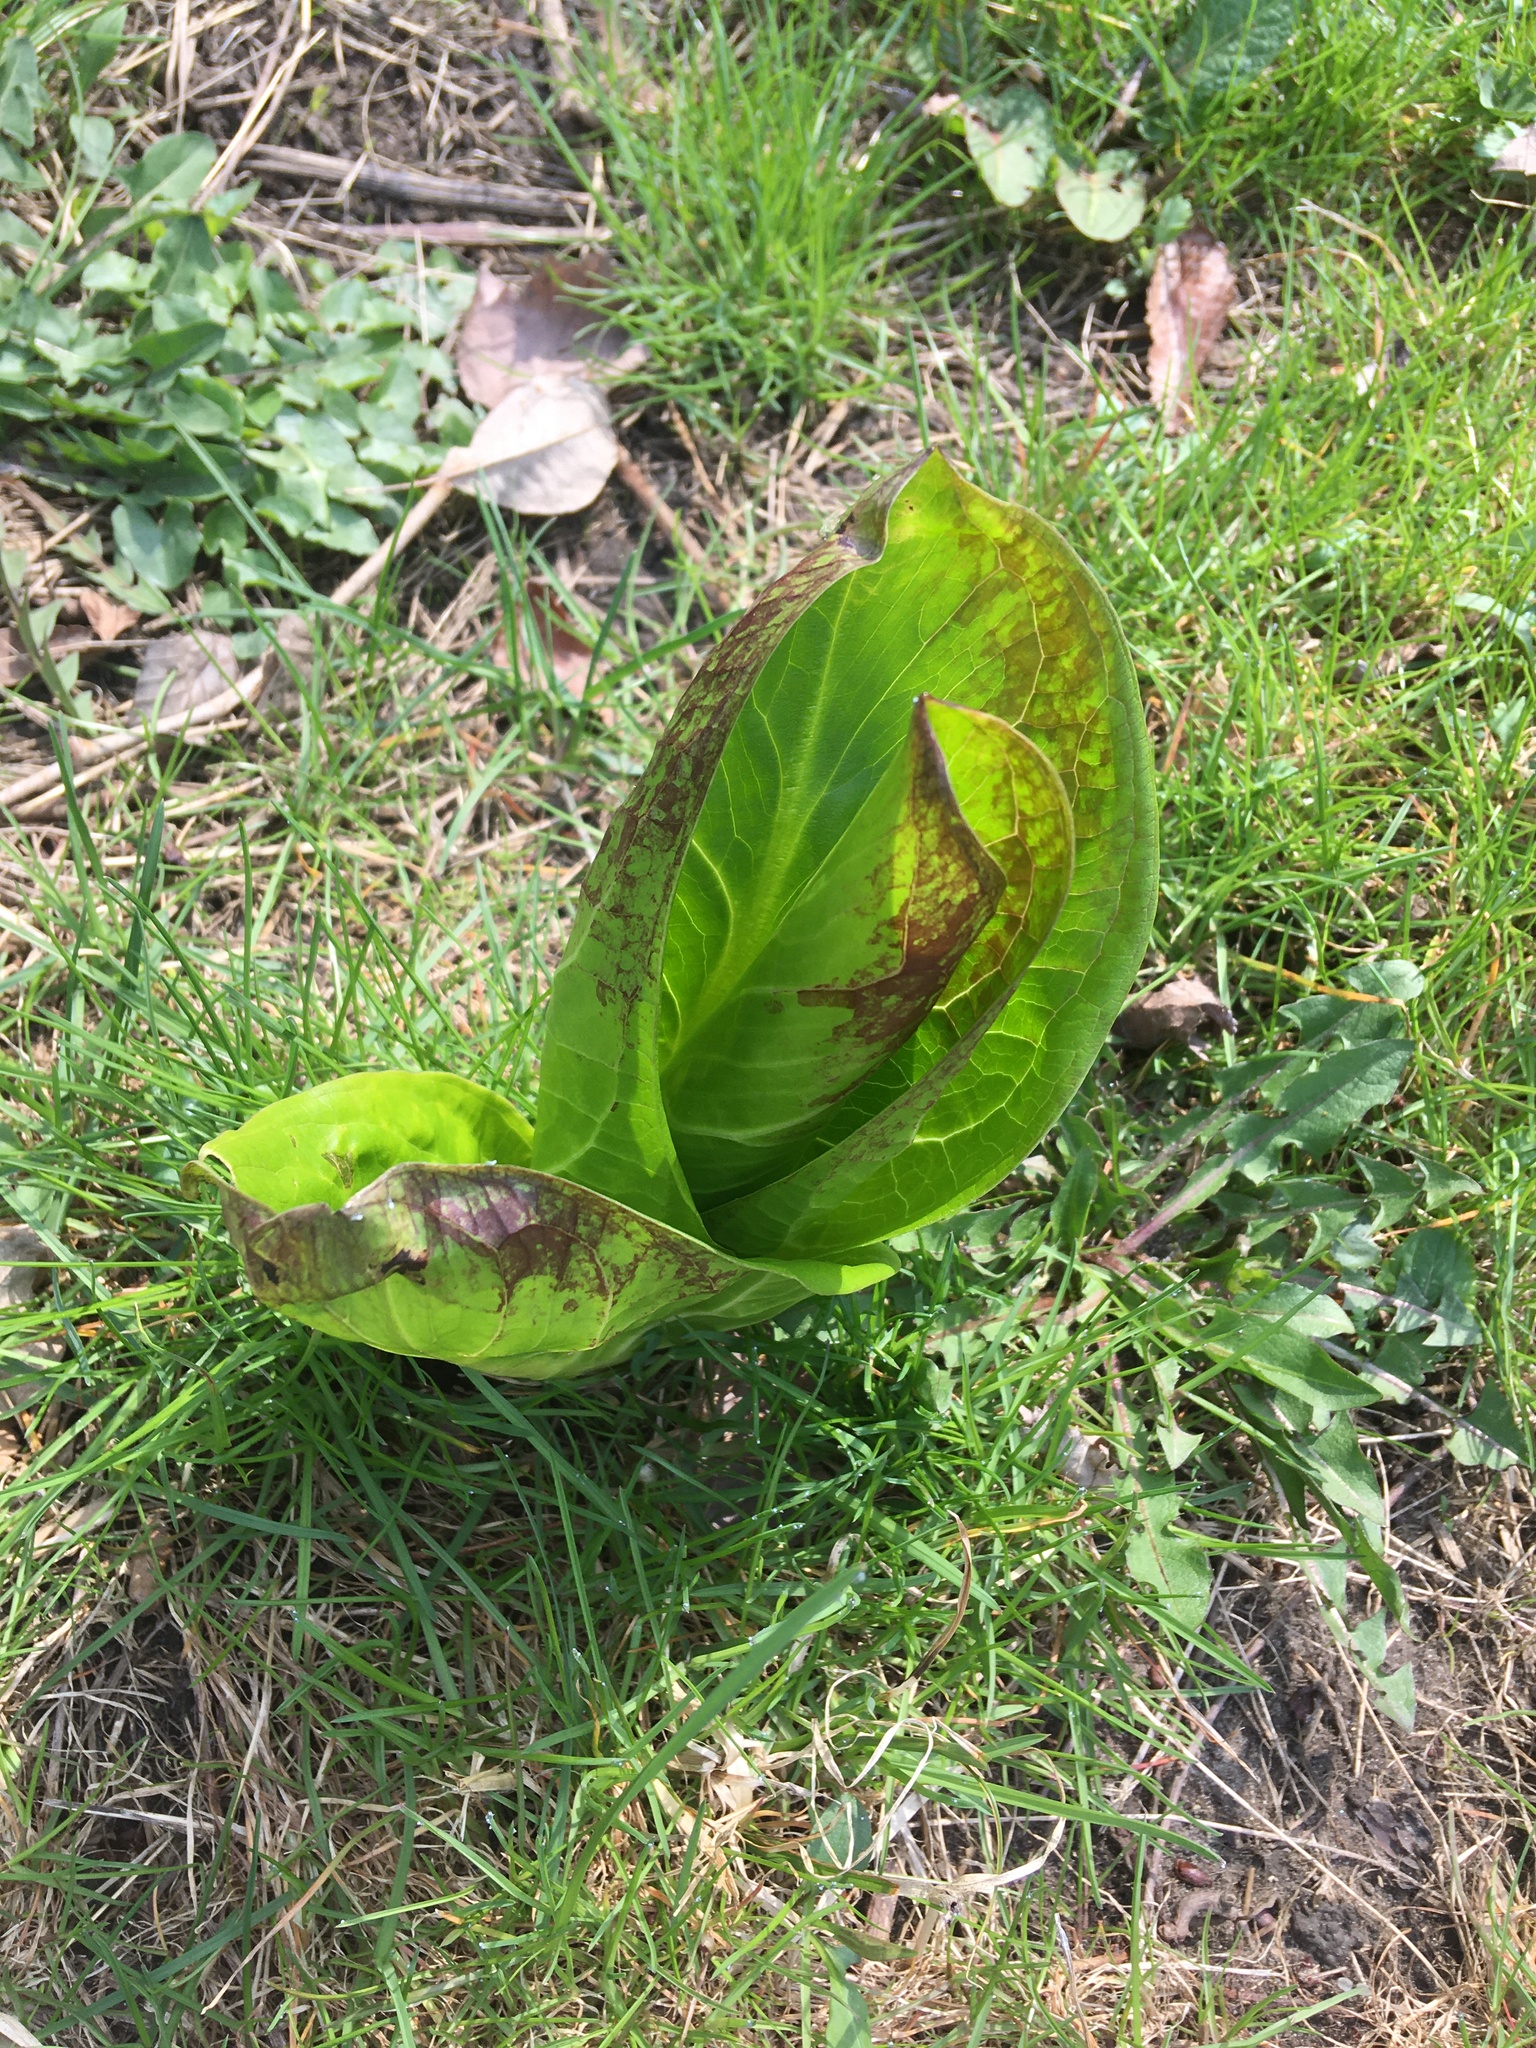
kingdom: Plantae
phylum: Tracheophyta
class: Liliopsida
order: Alismatales
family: Araceae
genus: Symplocarpus
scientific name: Symplocarpus foetidus
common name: Eastern skunk cabbage
